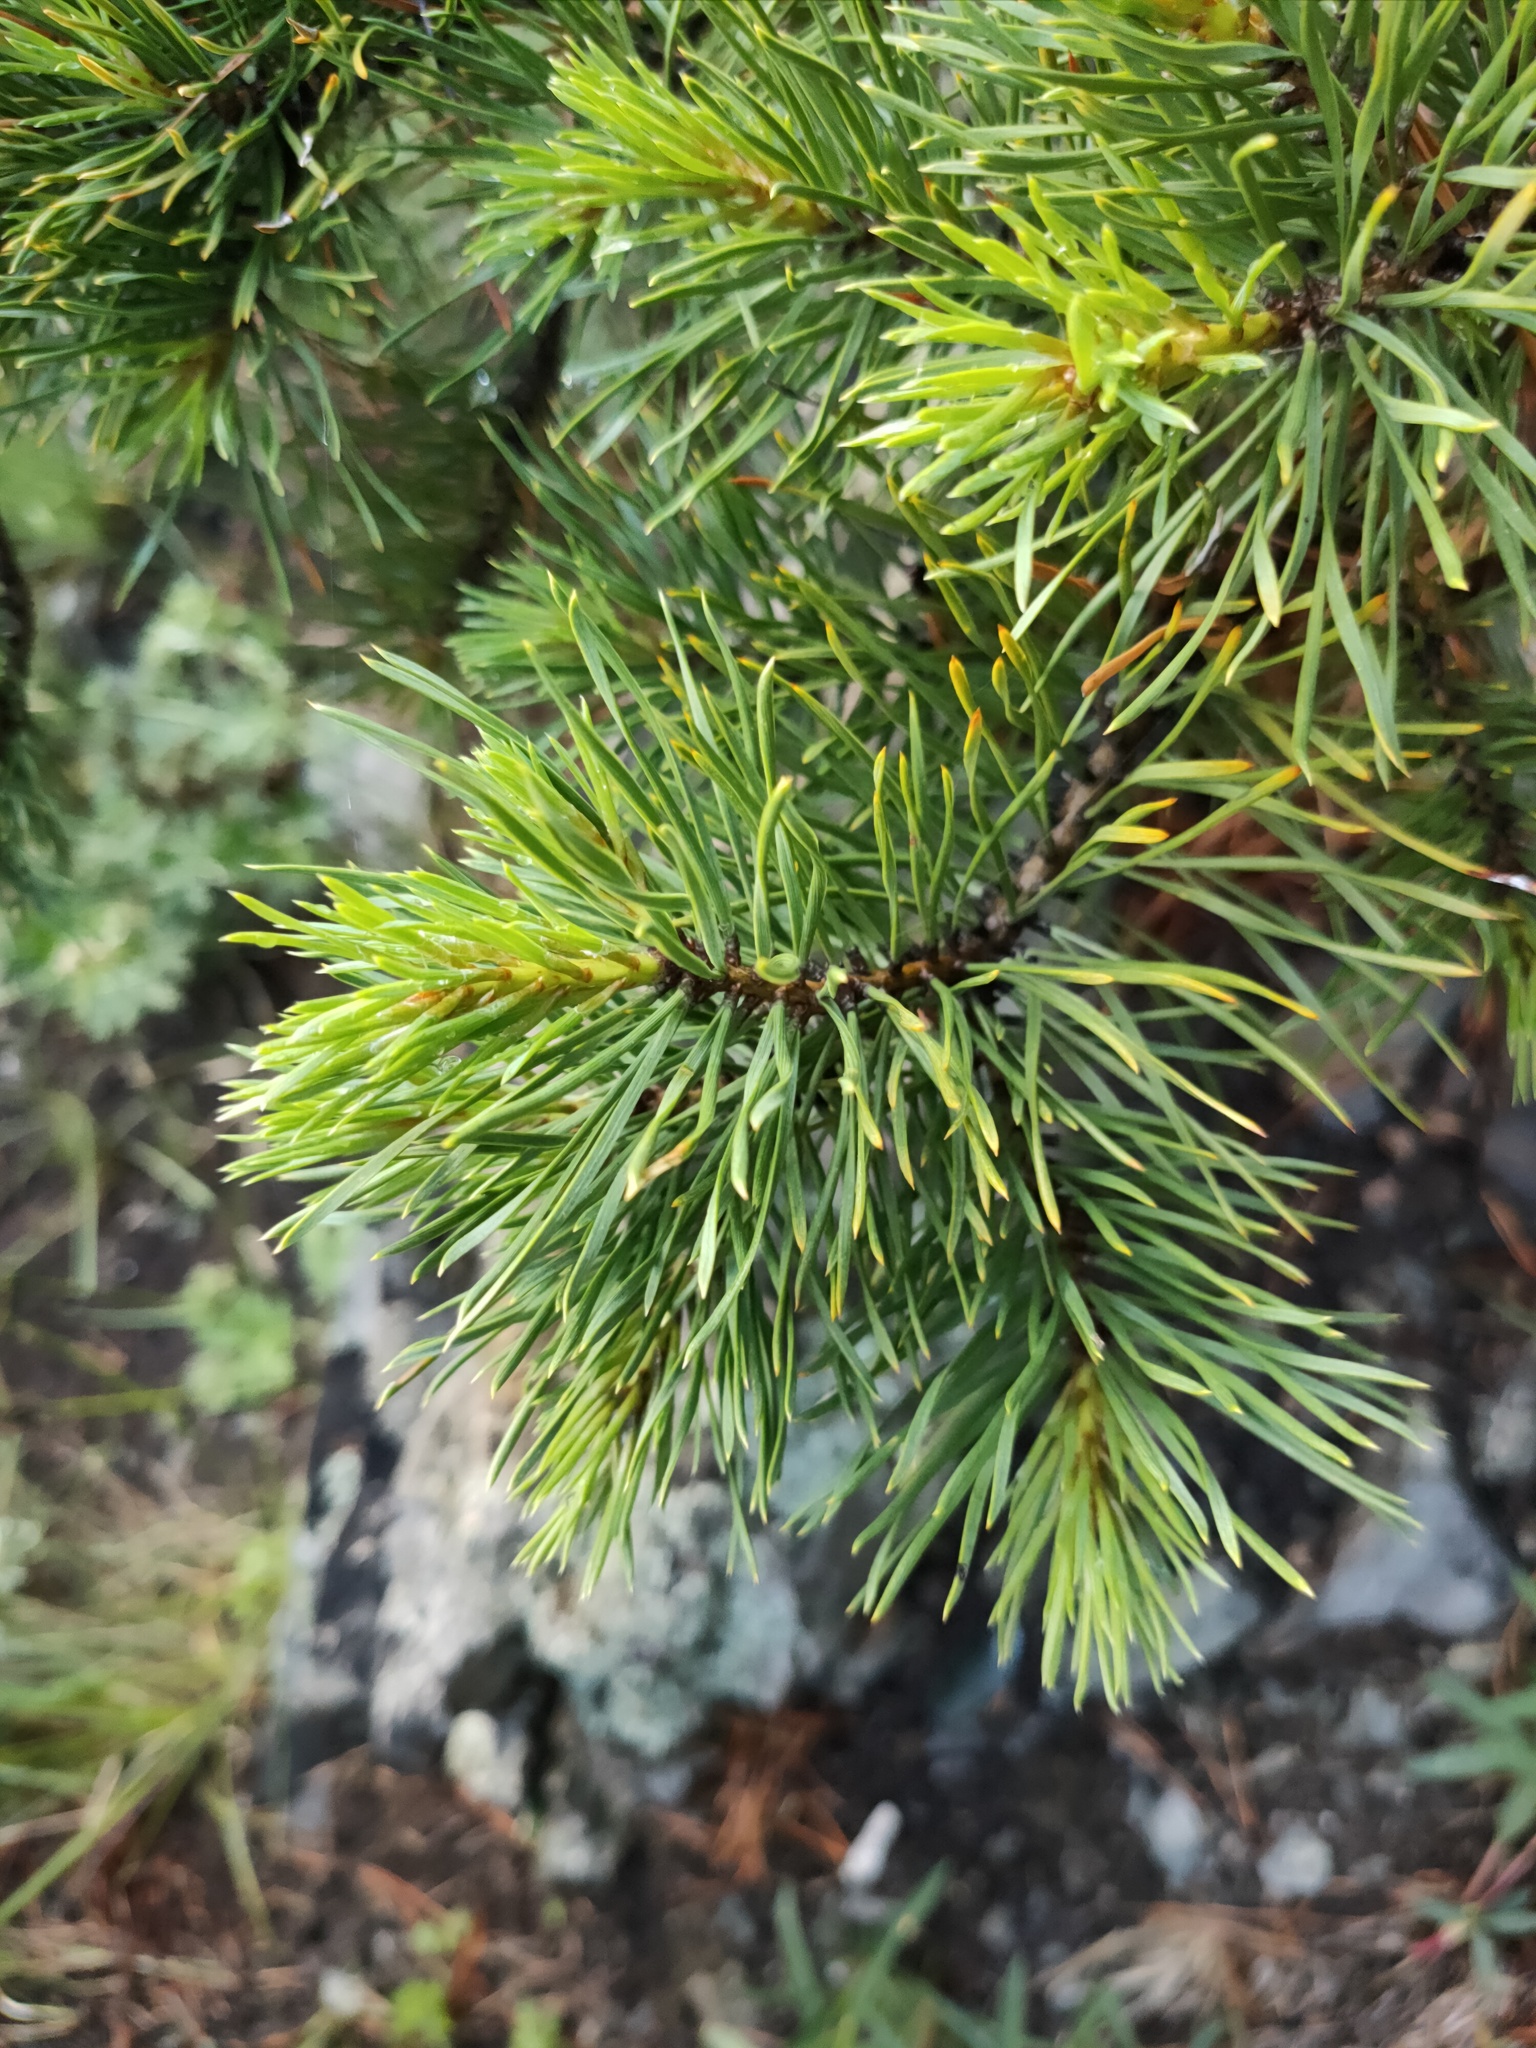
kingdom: Plantae
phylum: Tracheophyta
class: Pinopsida
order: Pinales
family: Pinaceae
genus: Pinus
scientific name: Pinus sylvestris
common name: Scots pine
